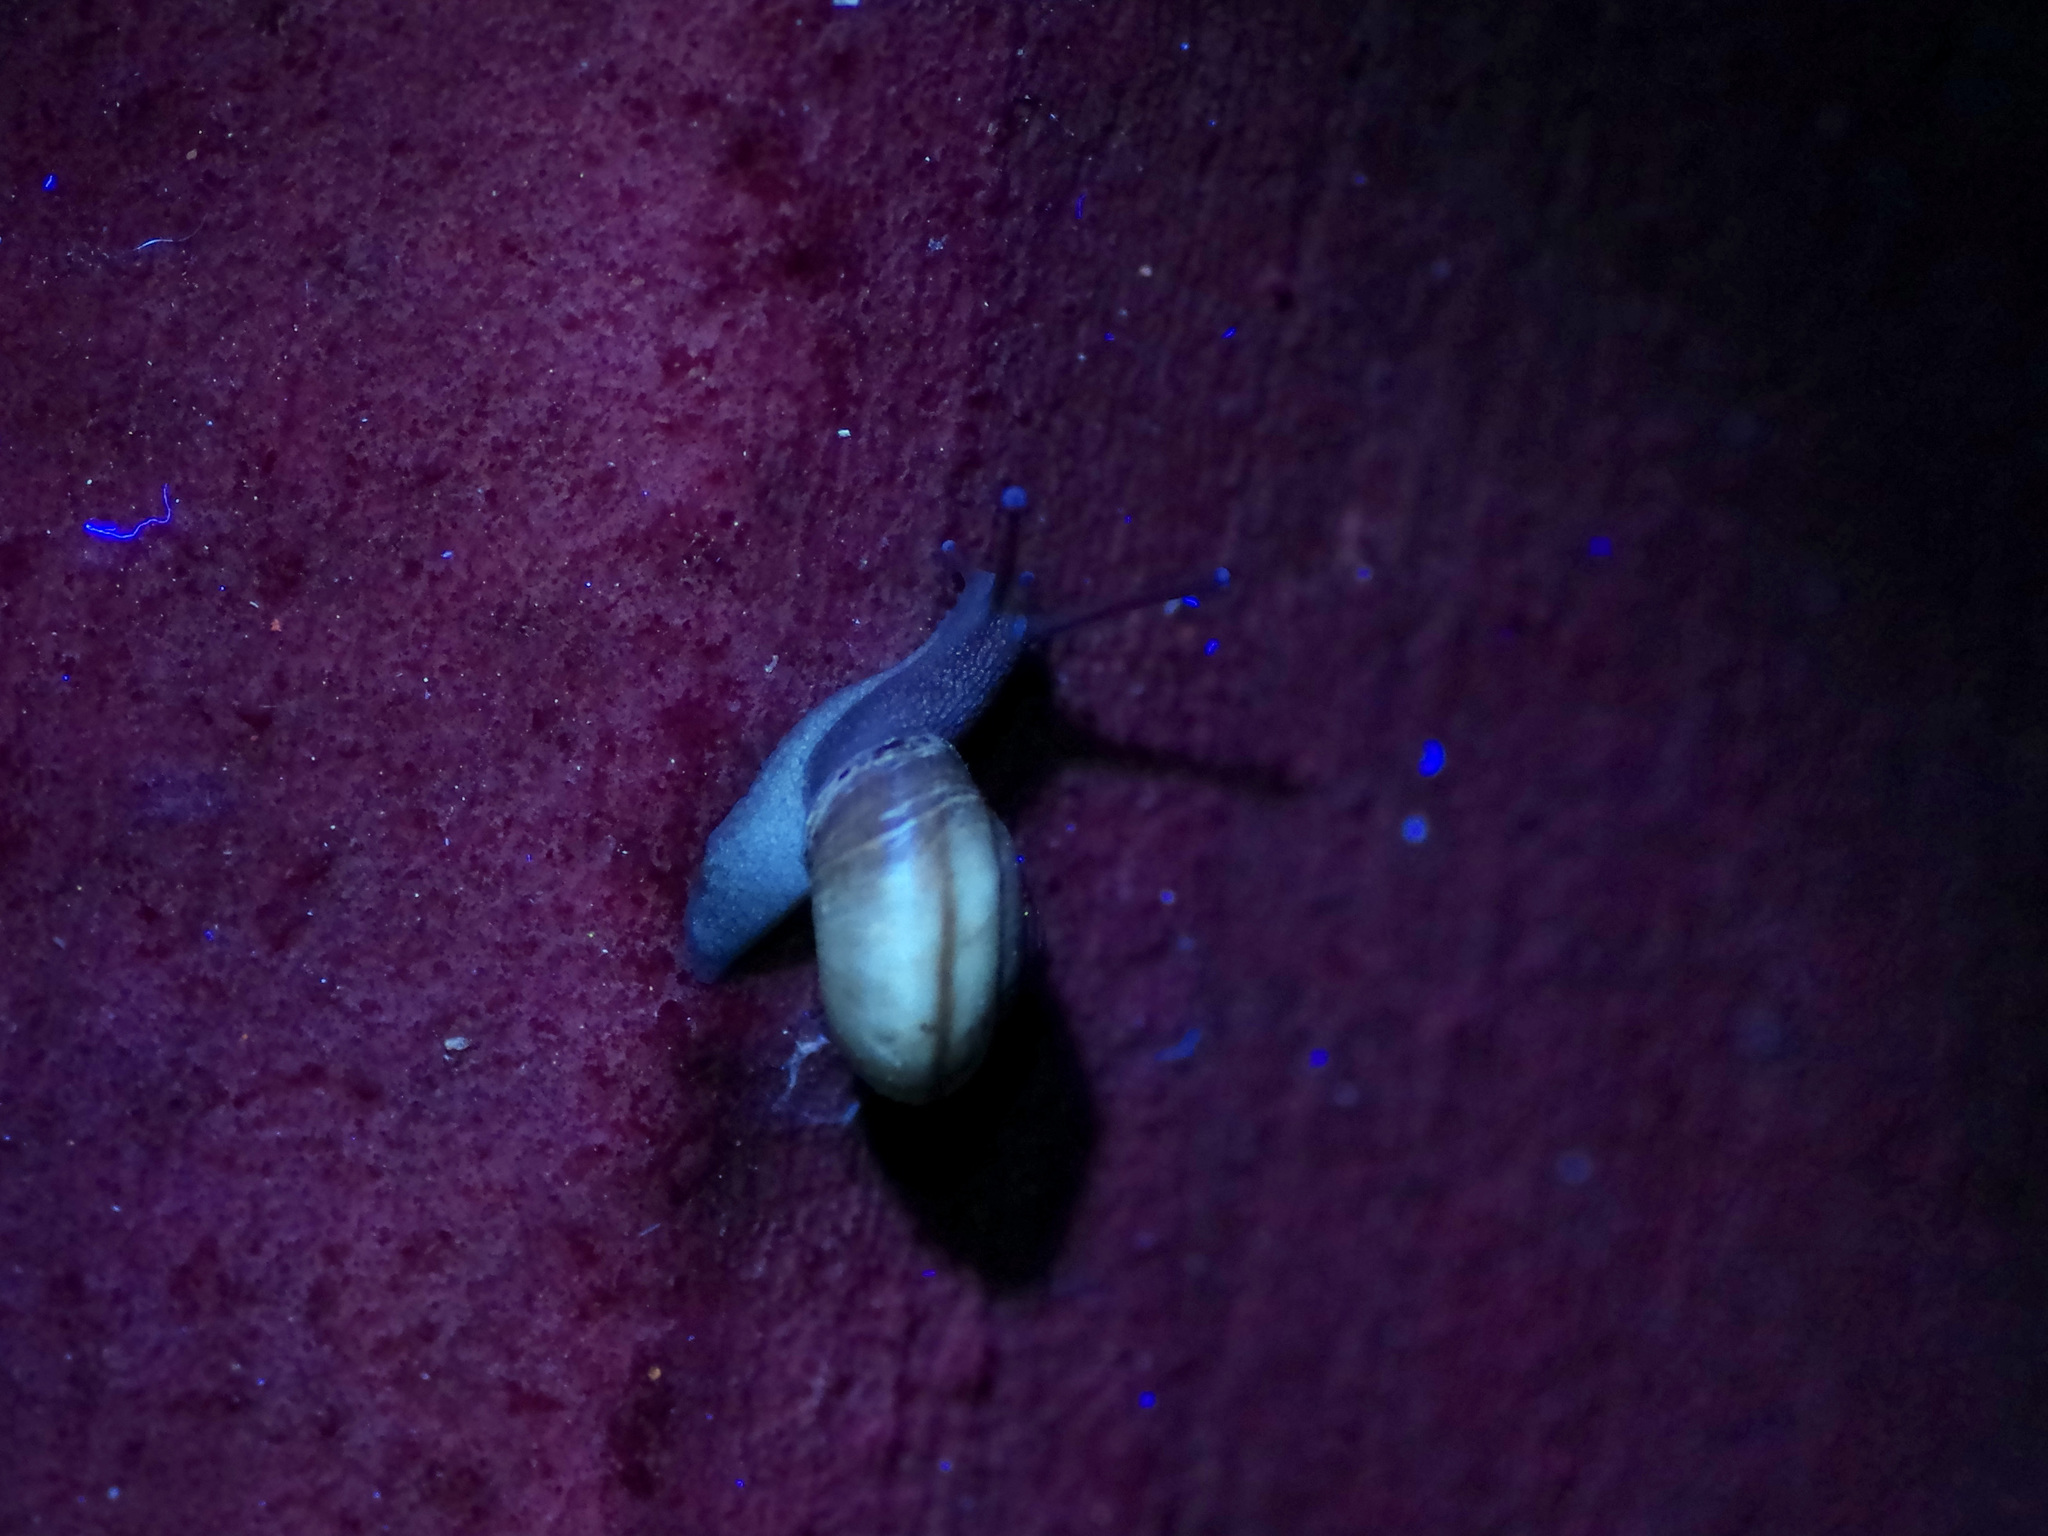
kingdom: Animalia
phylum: Mollusca
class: Gastropoda
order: Stylommatophora
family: Camaenidae
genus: Bradybaena
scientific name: Bradybaena similaris
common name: Asian trampsnail
